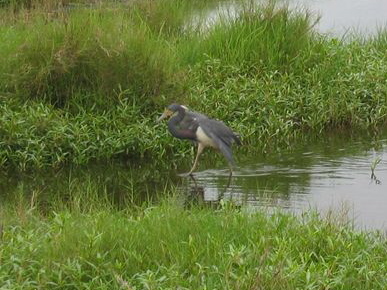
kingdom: Animalia
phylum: Chordata
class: Aves
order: Pelecaniformes
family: Ardeidae
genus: Egretta
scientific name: Egretta tricolor
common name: Tricolored heron
